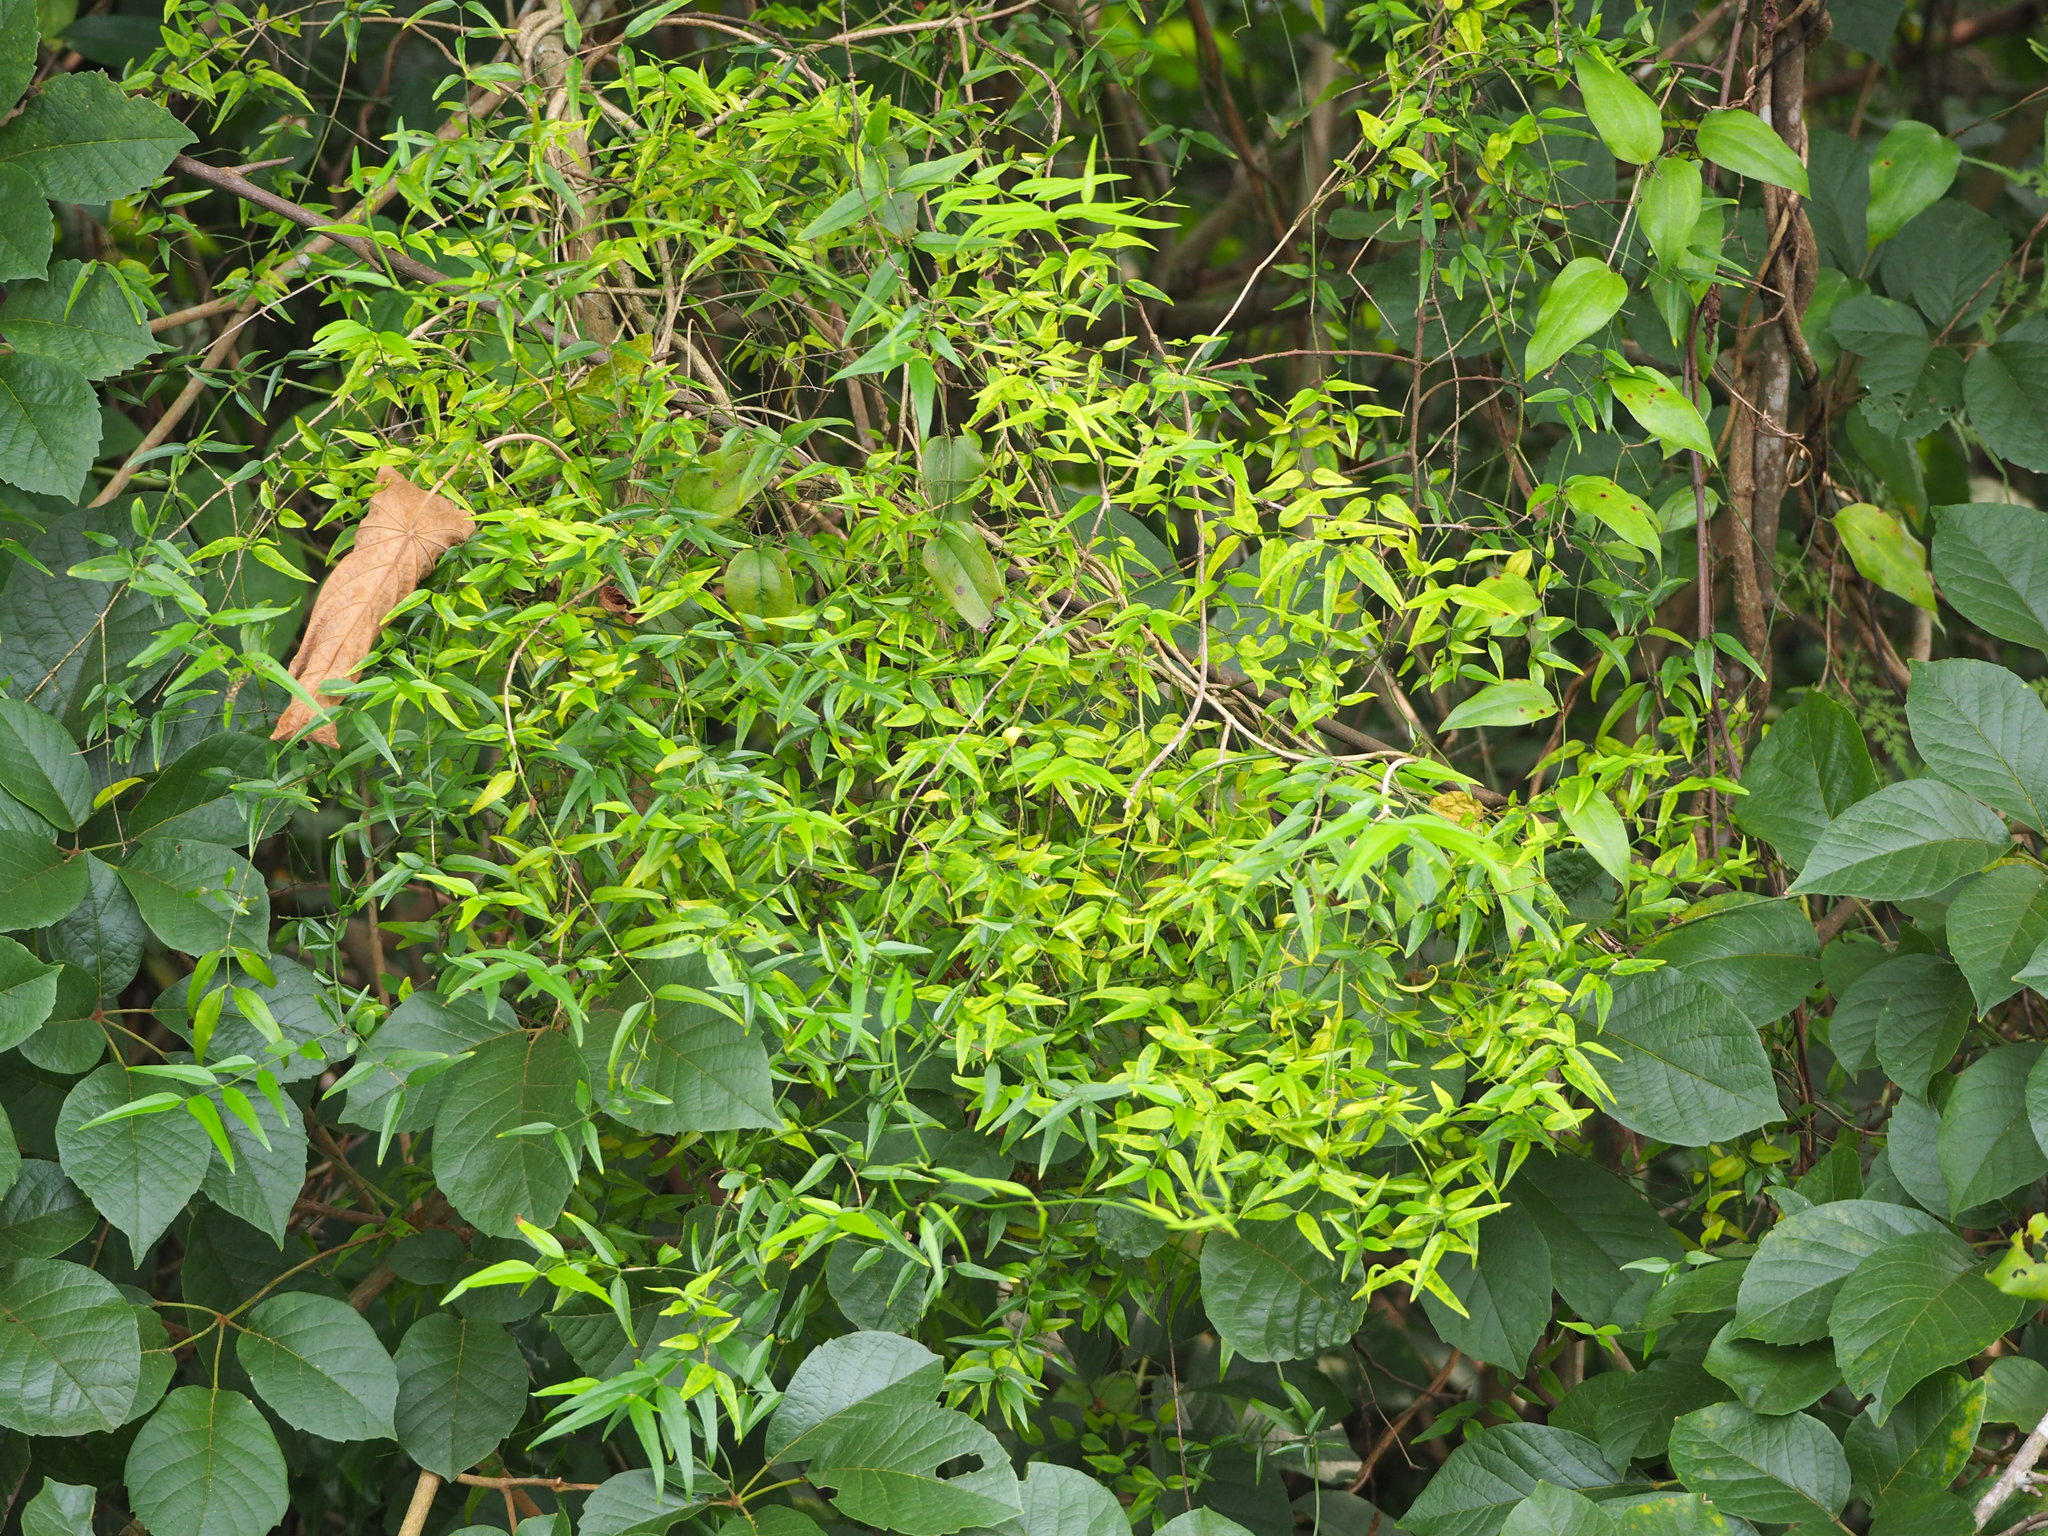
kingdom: Plantae
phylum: Tracheophyta
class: Magnoliopsida
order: Lamiales
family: Oleaceae
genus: Jasminum
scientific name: Jasminum nervosum
